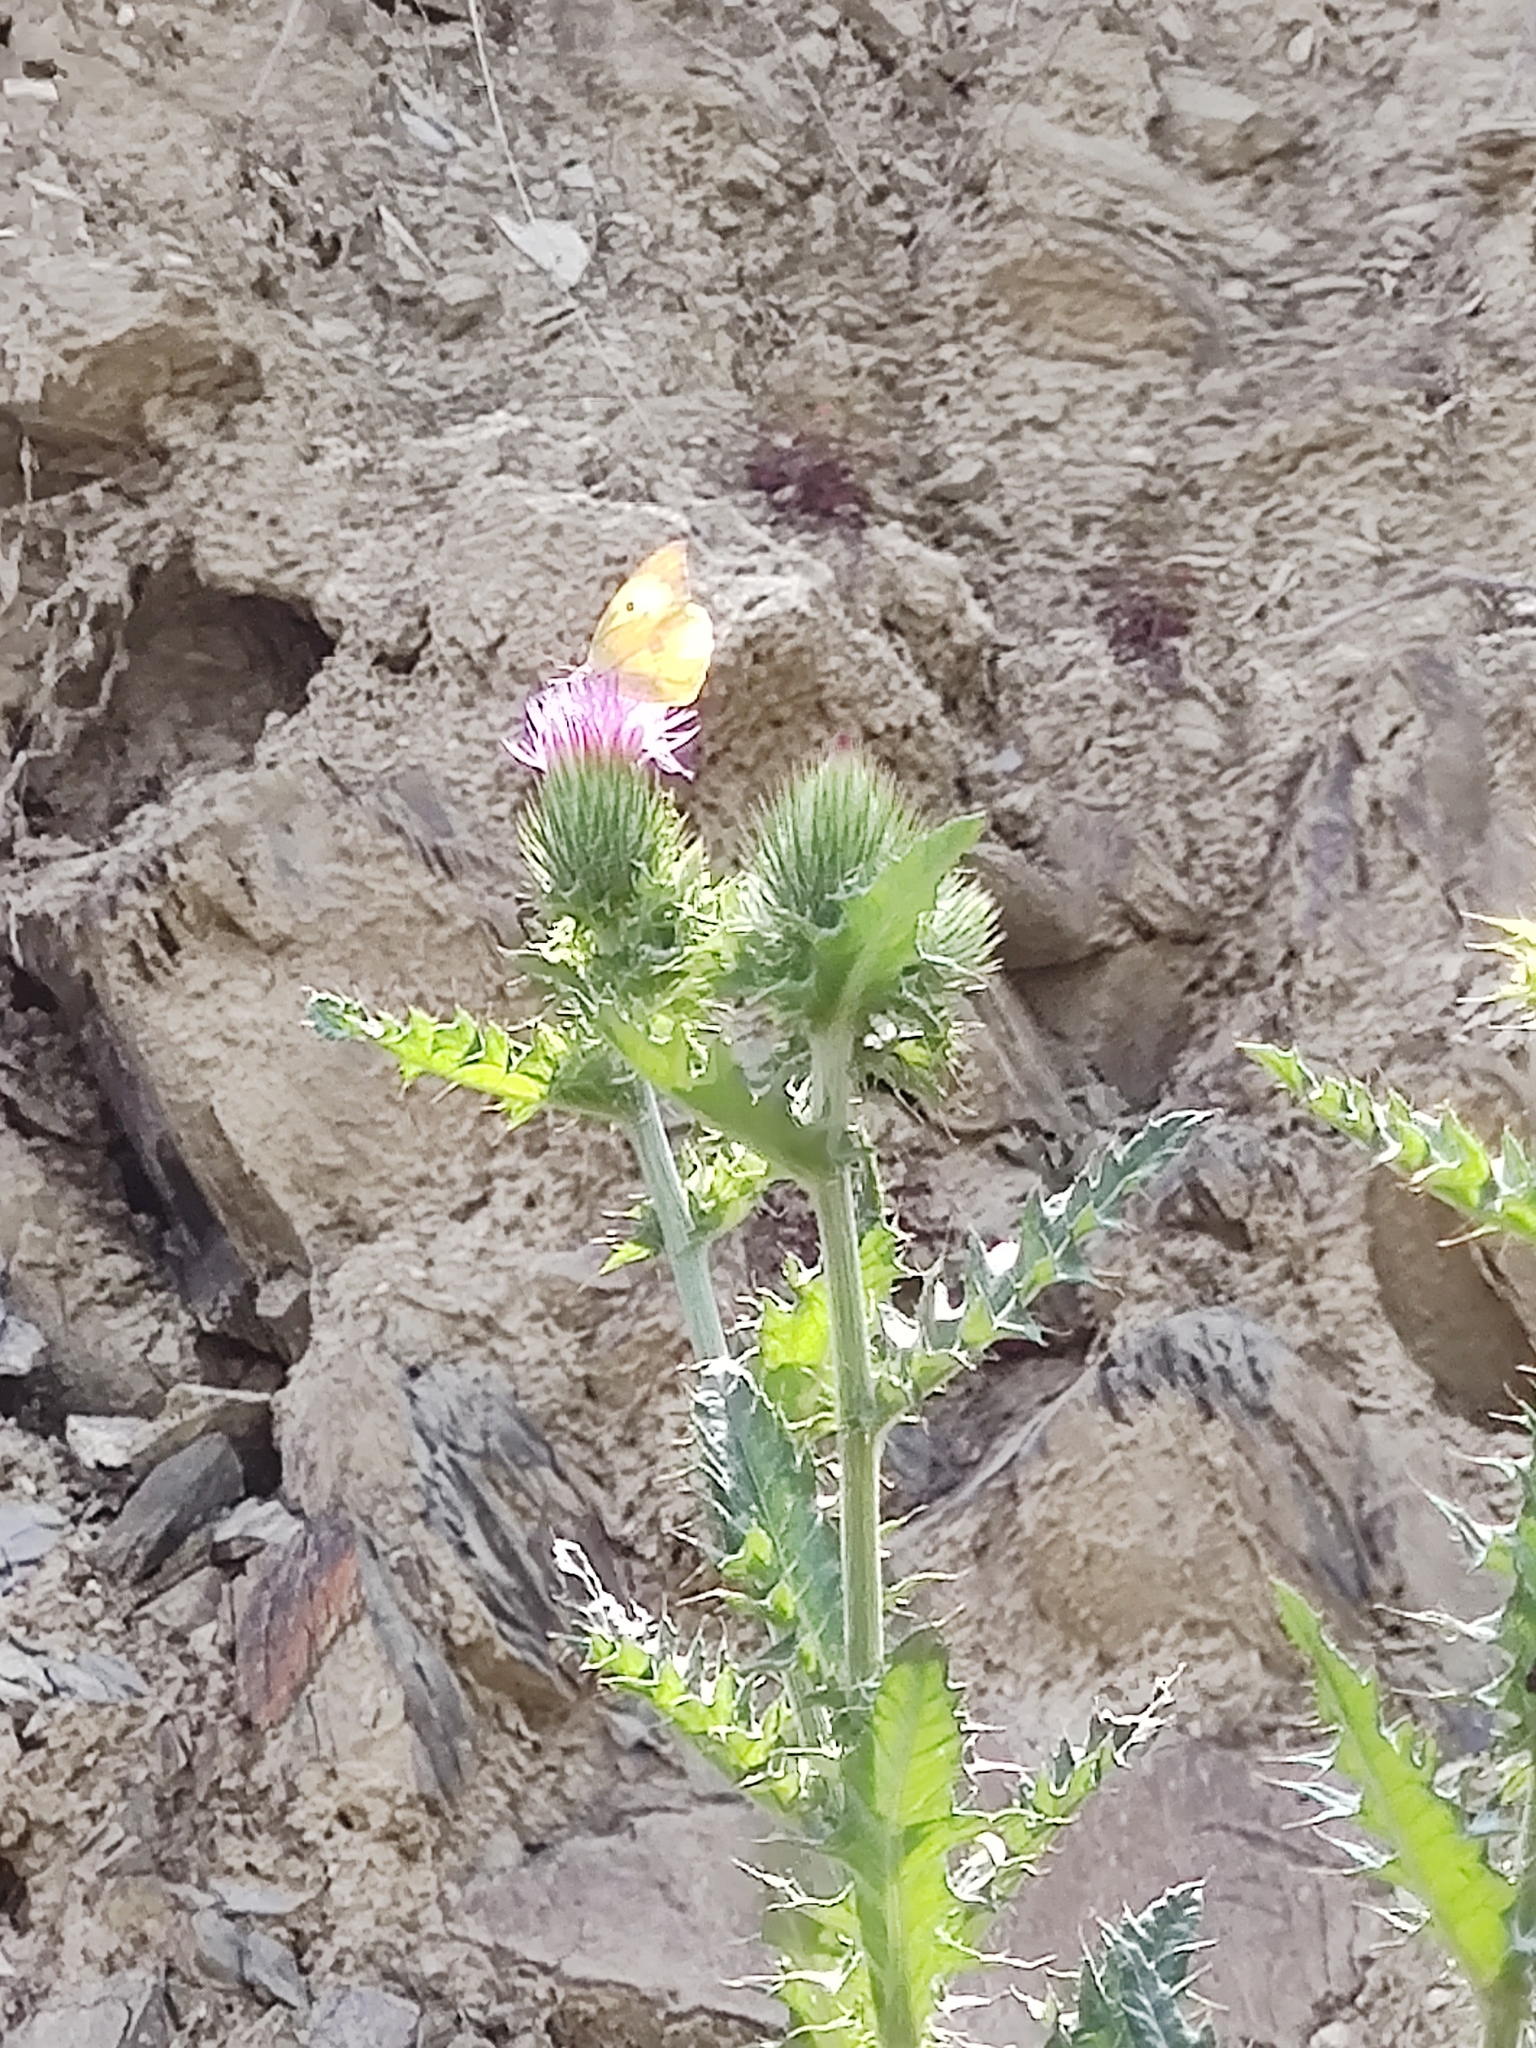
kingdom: Animalia
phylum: Arthropoda
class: Insecta
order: Lepidoptera
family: Pieridae
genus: Zerene
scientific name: Zerene cesonia
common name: Southern dogface
